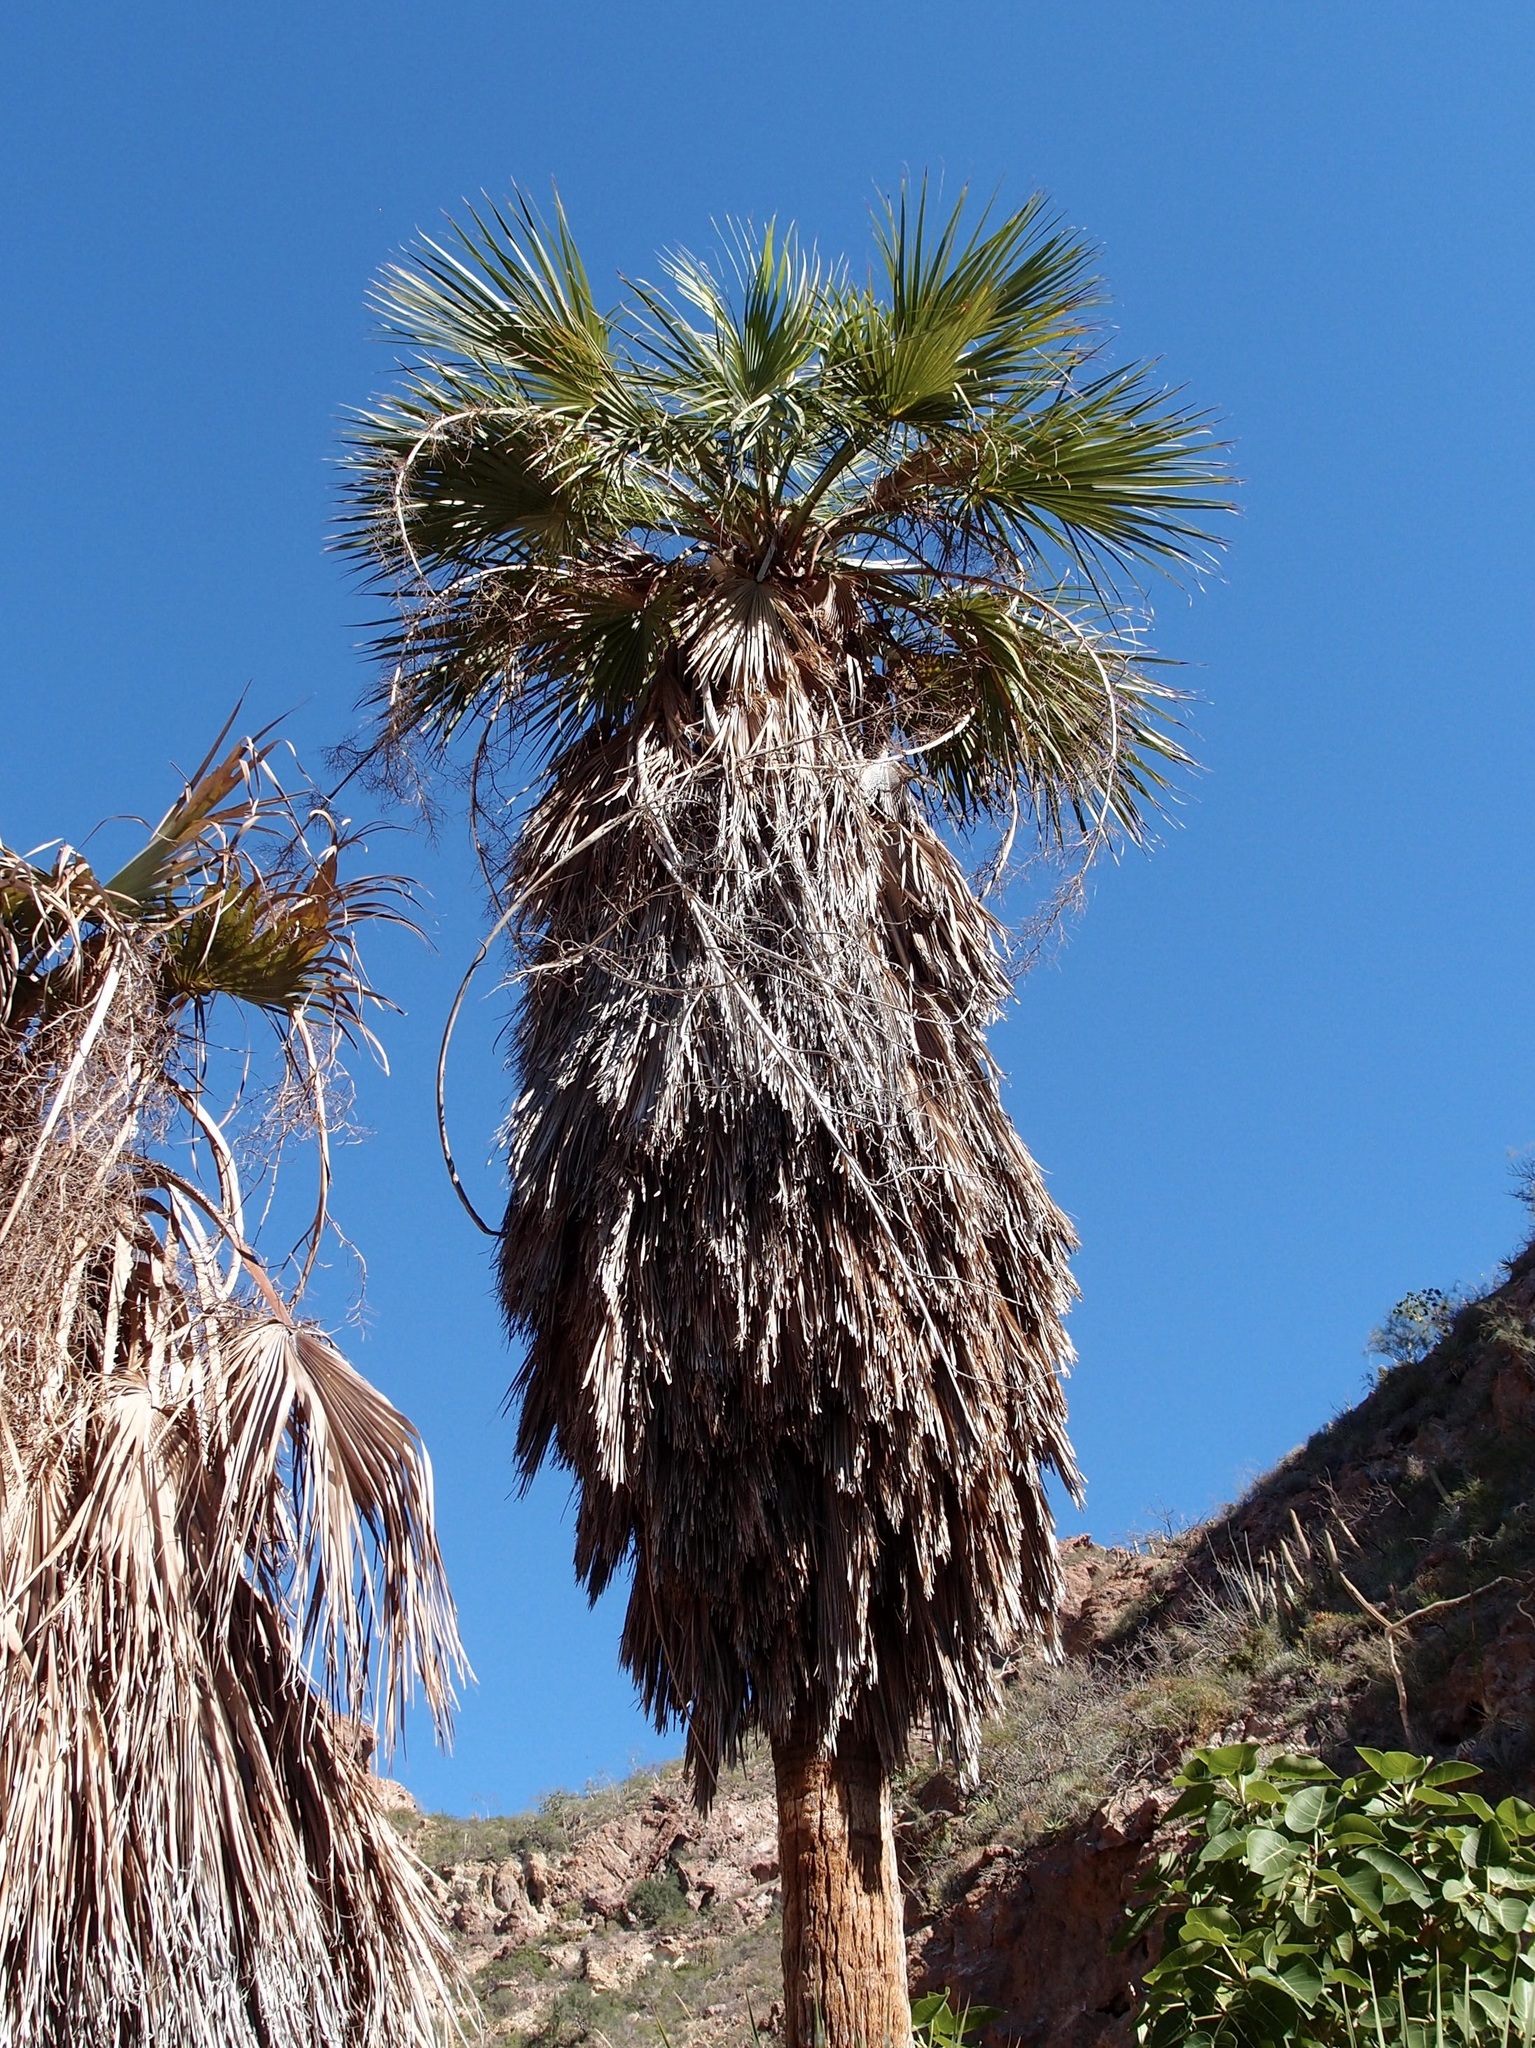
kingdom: Plantae
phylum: Tracheophyta
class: Liliopsida
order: Arecales
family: Arecaceae
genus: Brahea
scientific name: Brahea brandegeei
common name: San jose hesper palm
